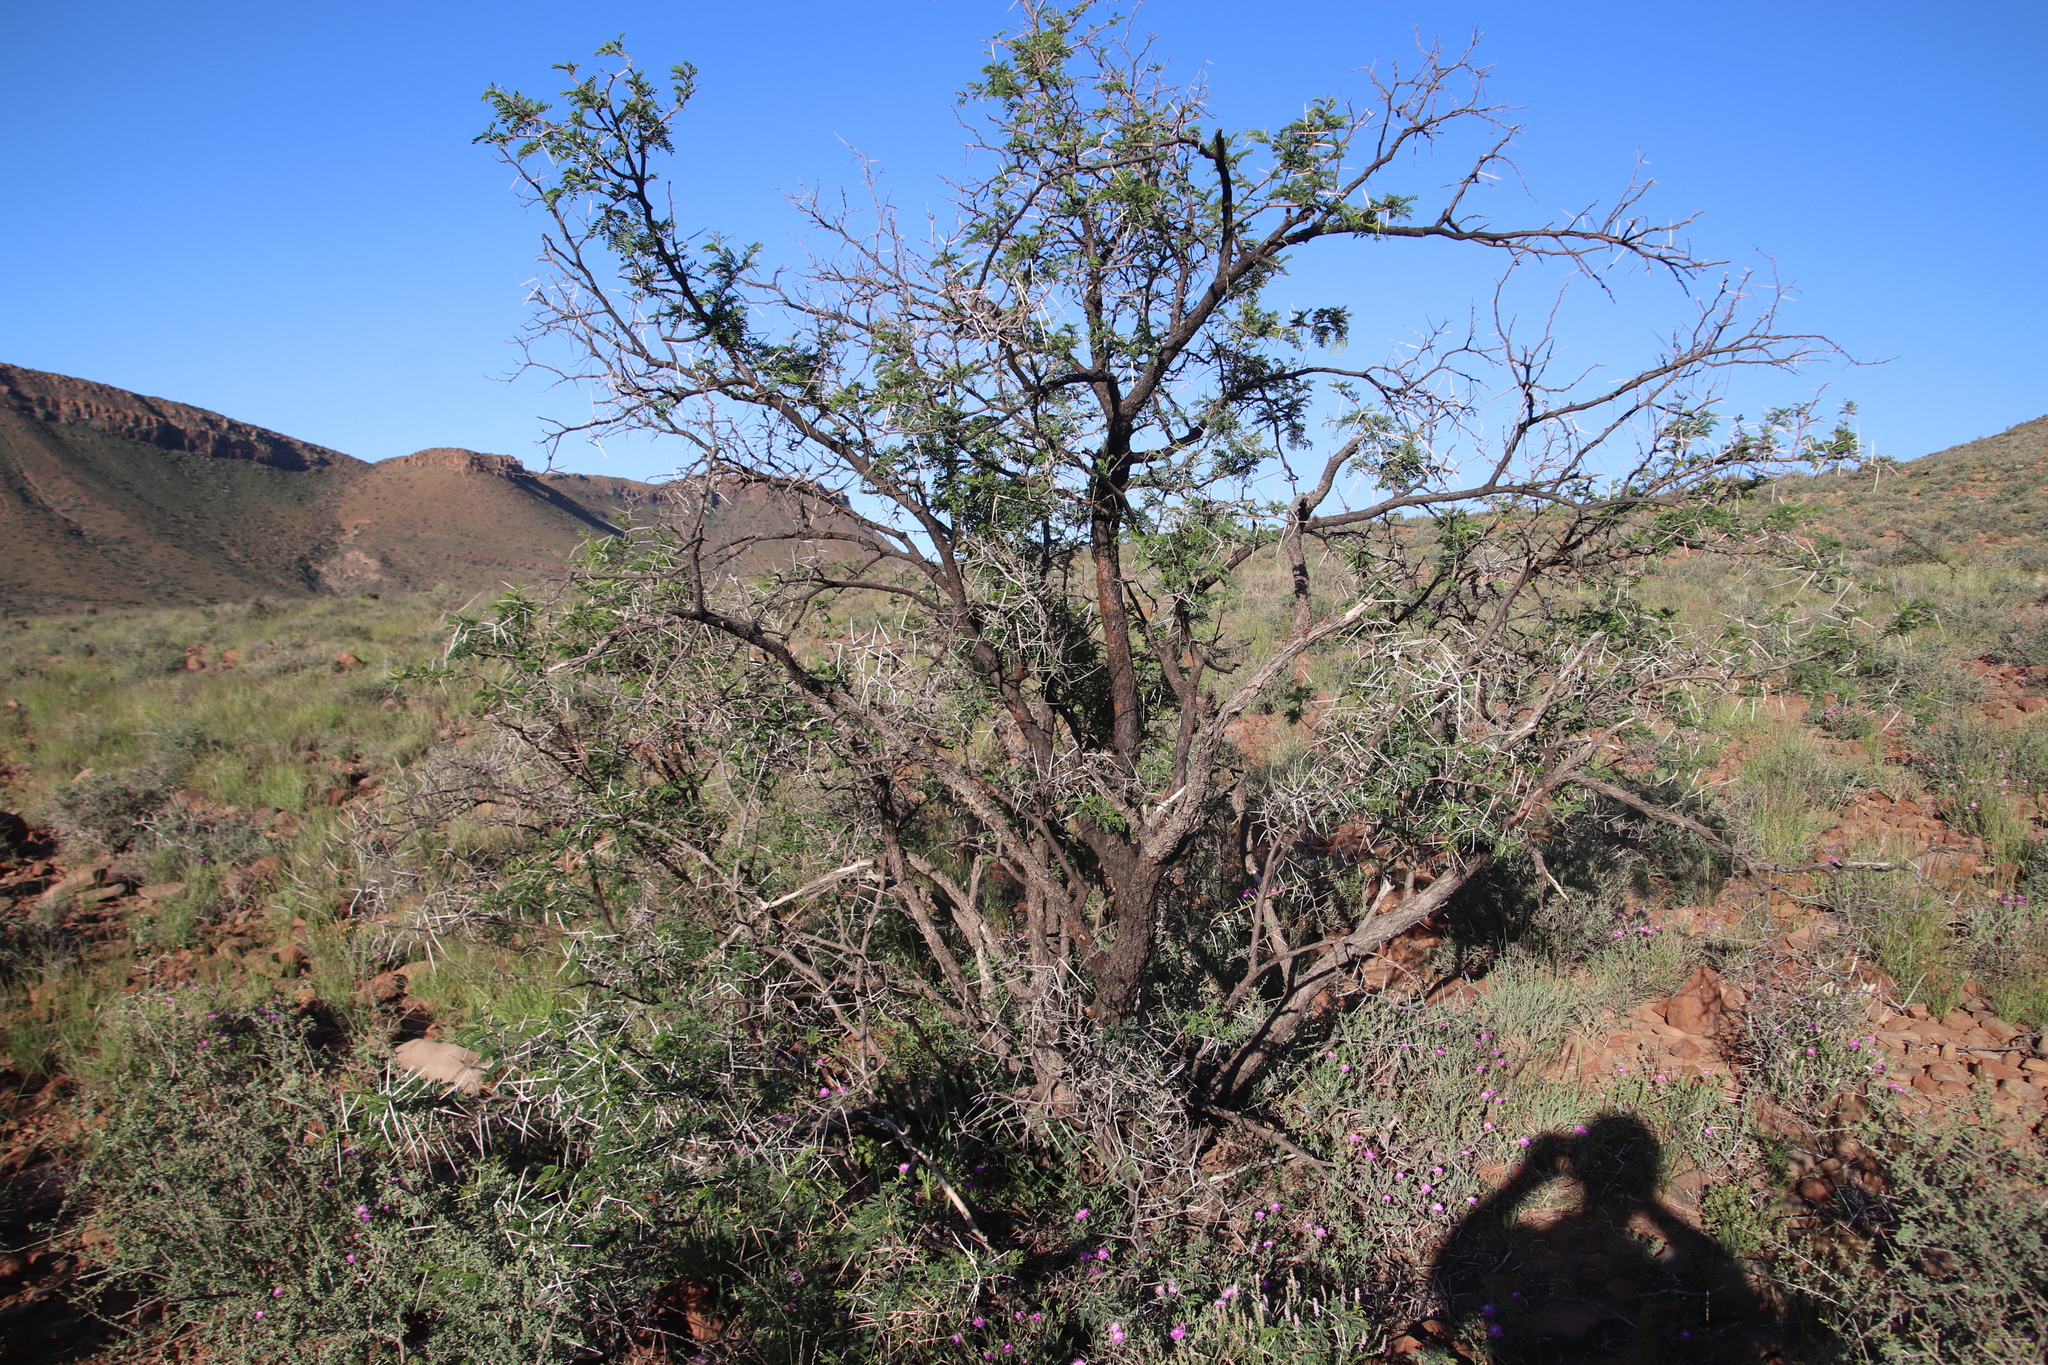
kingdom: Plantae
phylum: Tracheophyta
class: Magnoliopsida
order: Fabales
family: Fabaceae
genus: Vachellia
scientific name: Vachellia karroo
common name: Sweet thorn
